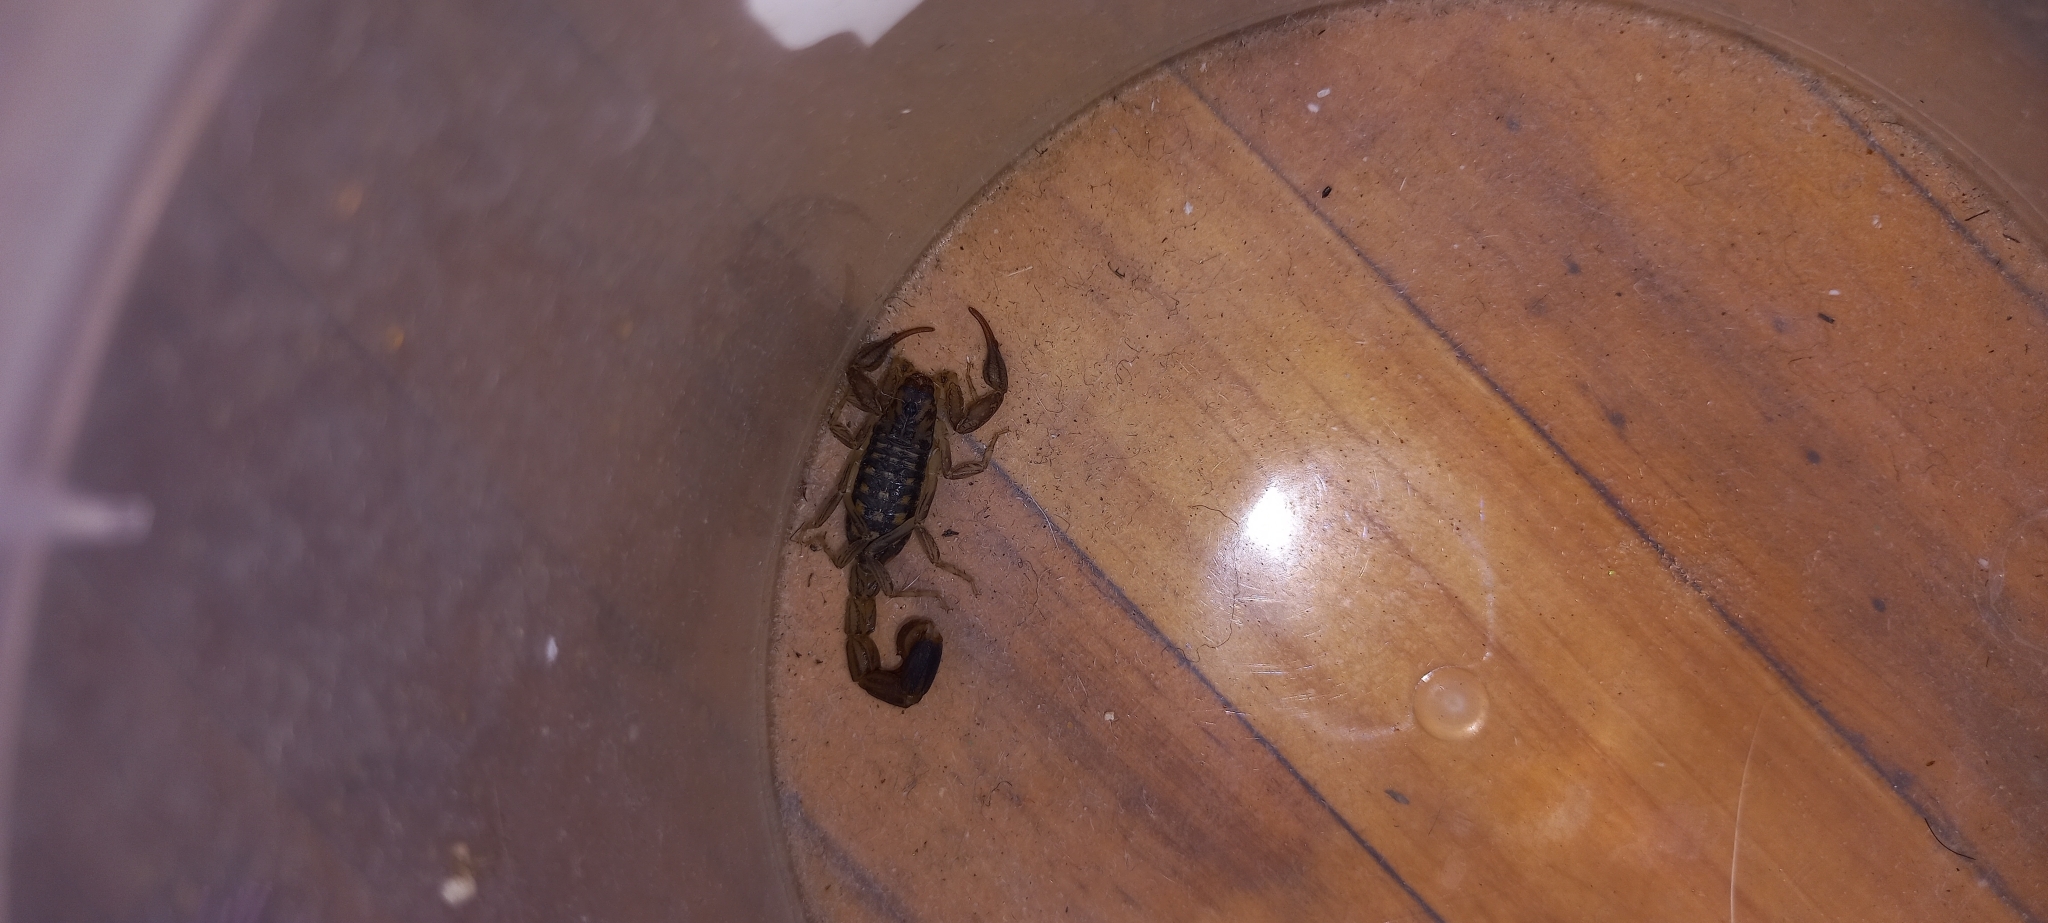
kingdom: Animalia
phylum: Arthropoda
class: Arachnida
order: Scorpiones
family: Buthidae
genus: Uroplectes
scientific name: Uroplectes lineatus
